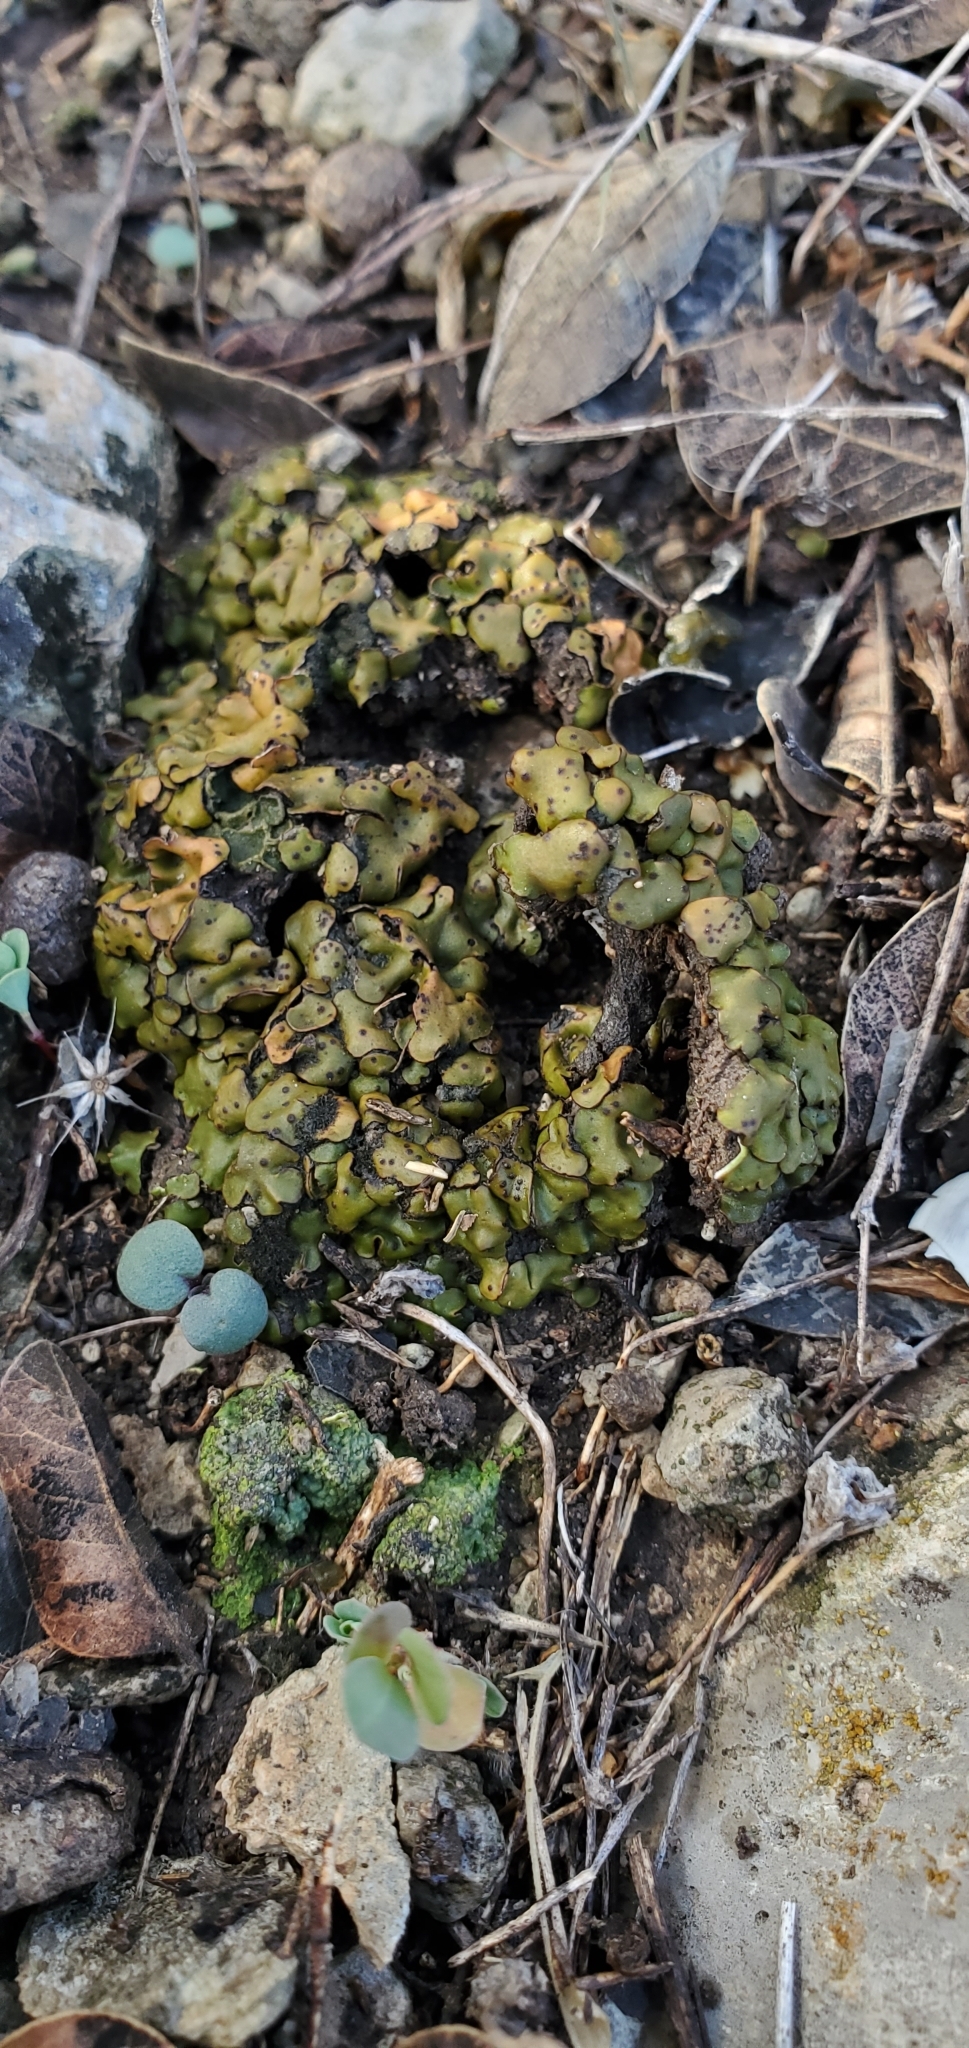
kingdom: Fungi
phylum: Ascomycota
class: Eurotiomycetes
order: Verrucariales
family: Verrucariaceae
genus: Catapyrenium
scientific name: Catapyrenium squamulosum
